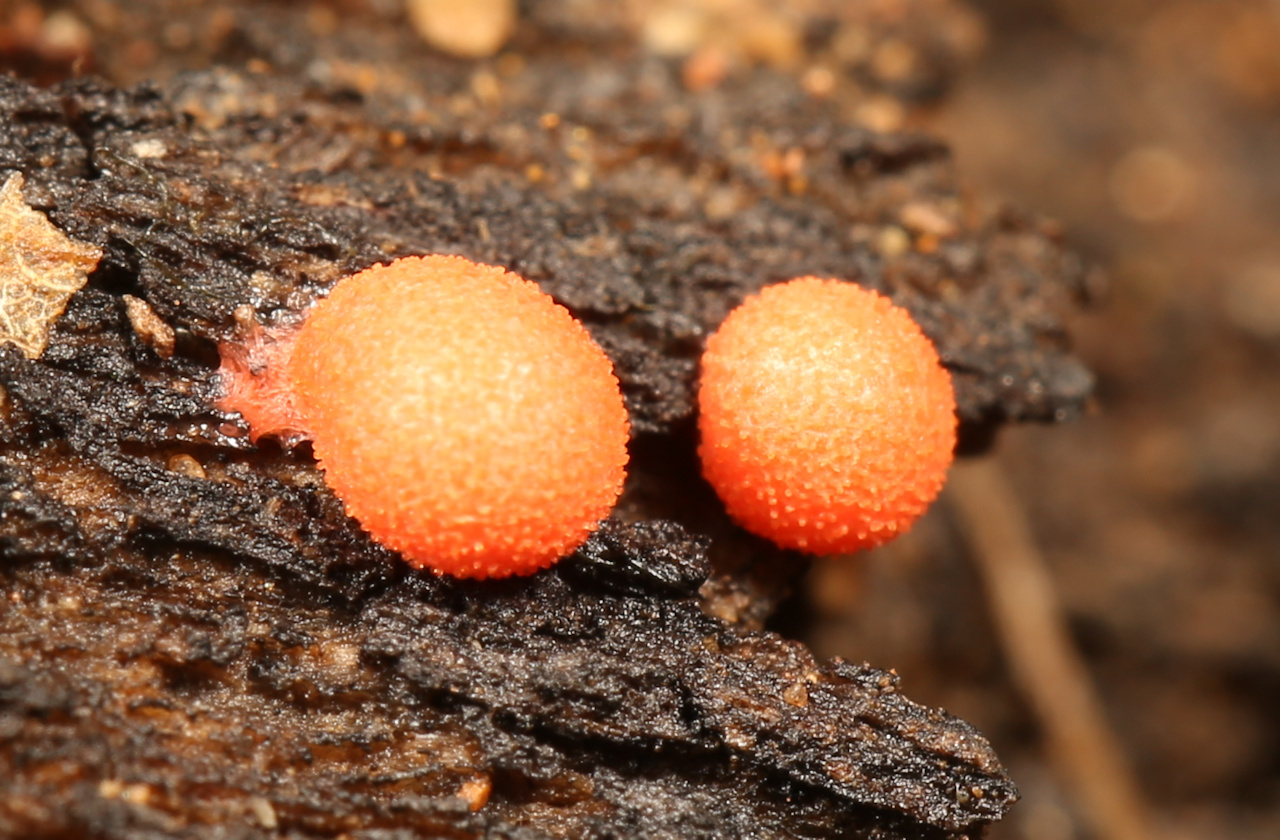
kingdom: Protozoa
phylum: Mycetozoa
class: Myxomycetes
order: Cribrariales
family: Tubiferaceae
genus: Lycogala
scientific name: Lycogala epidendrum
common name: Wolf's milk
